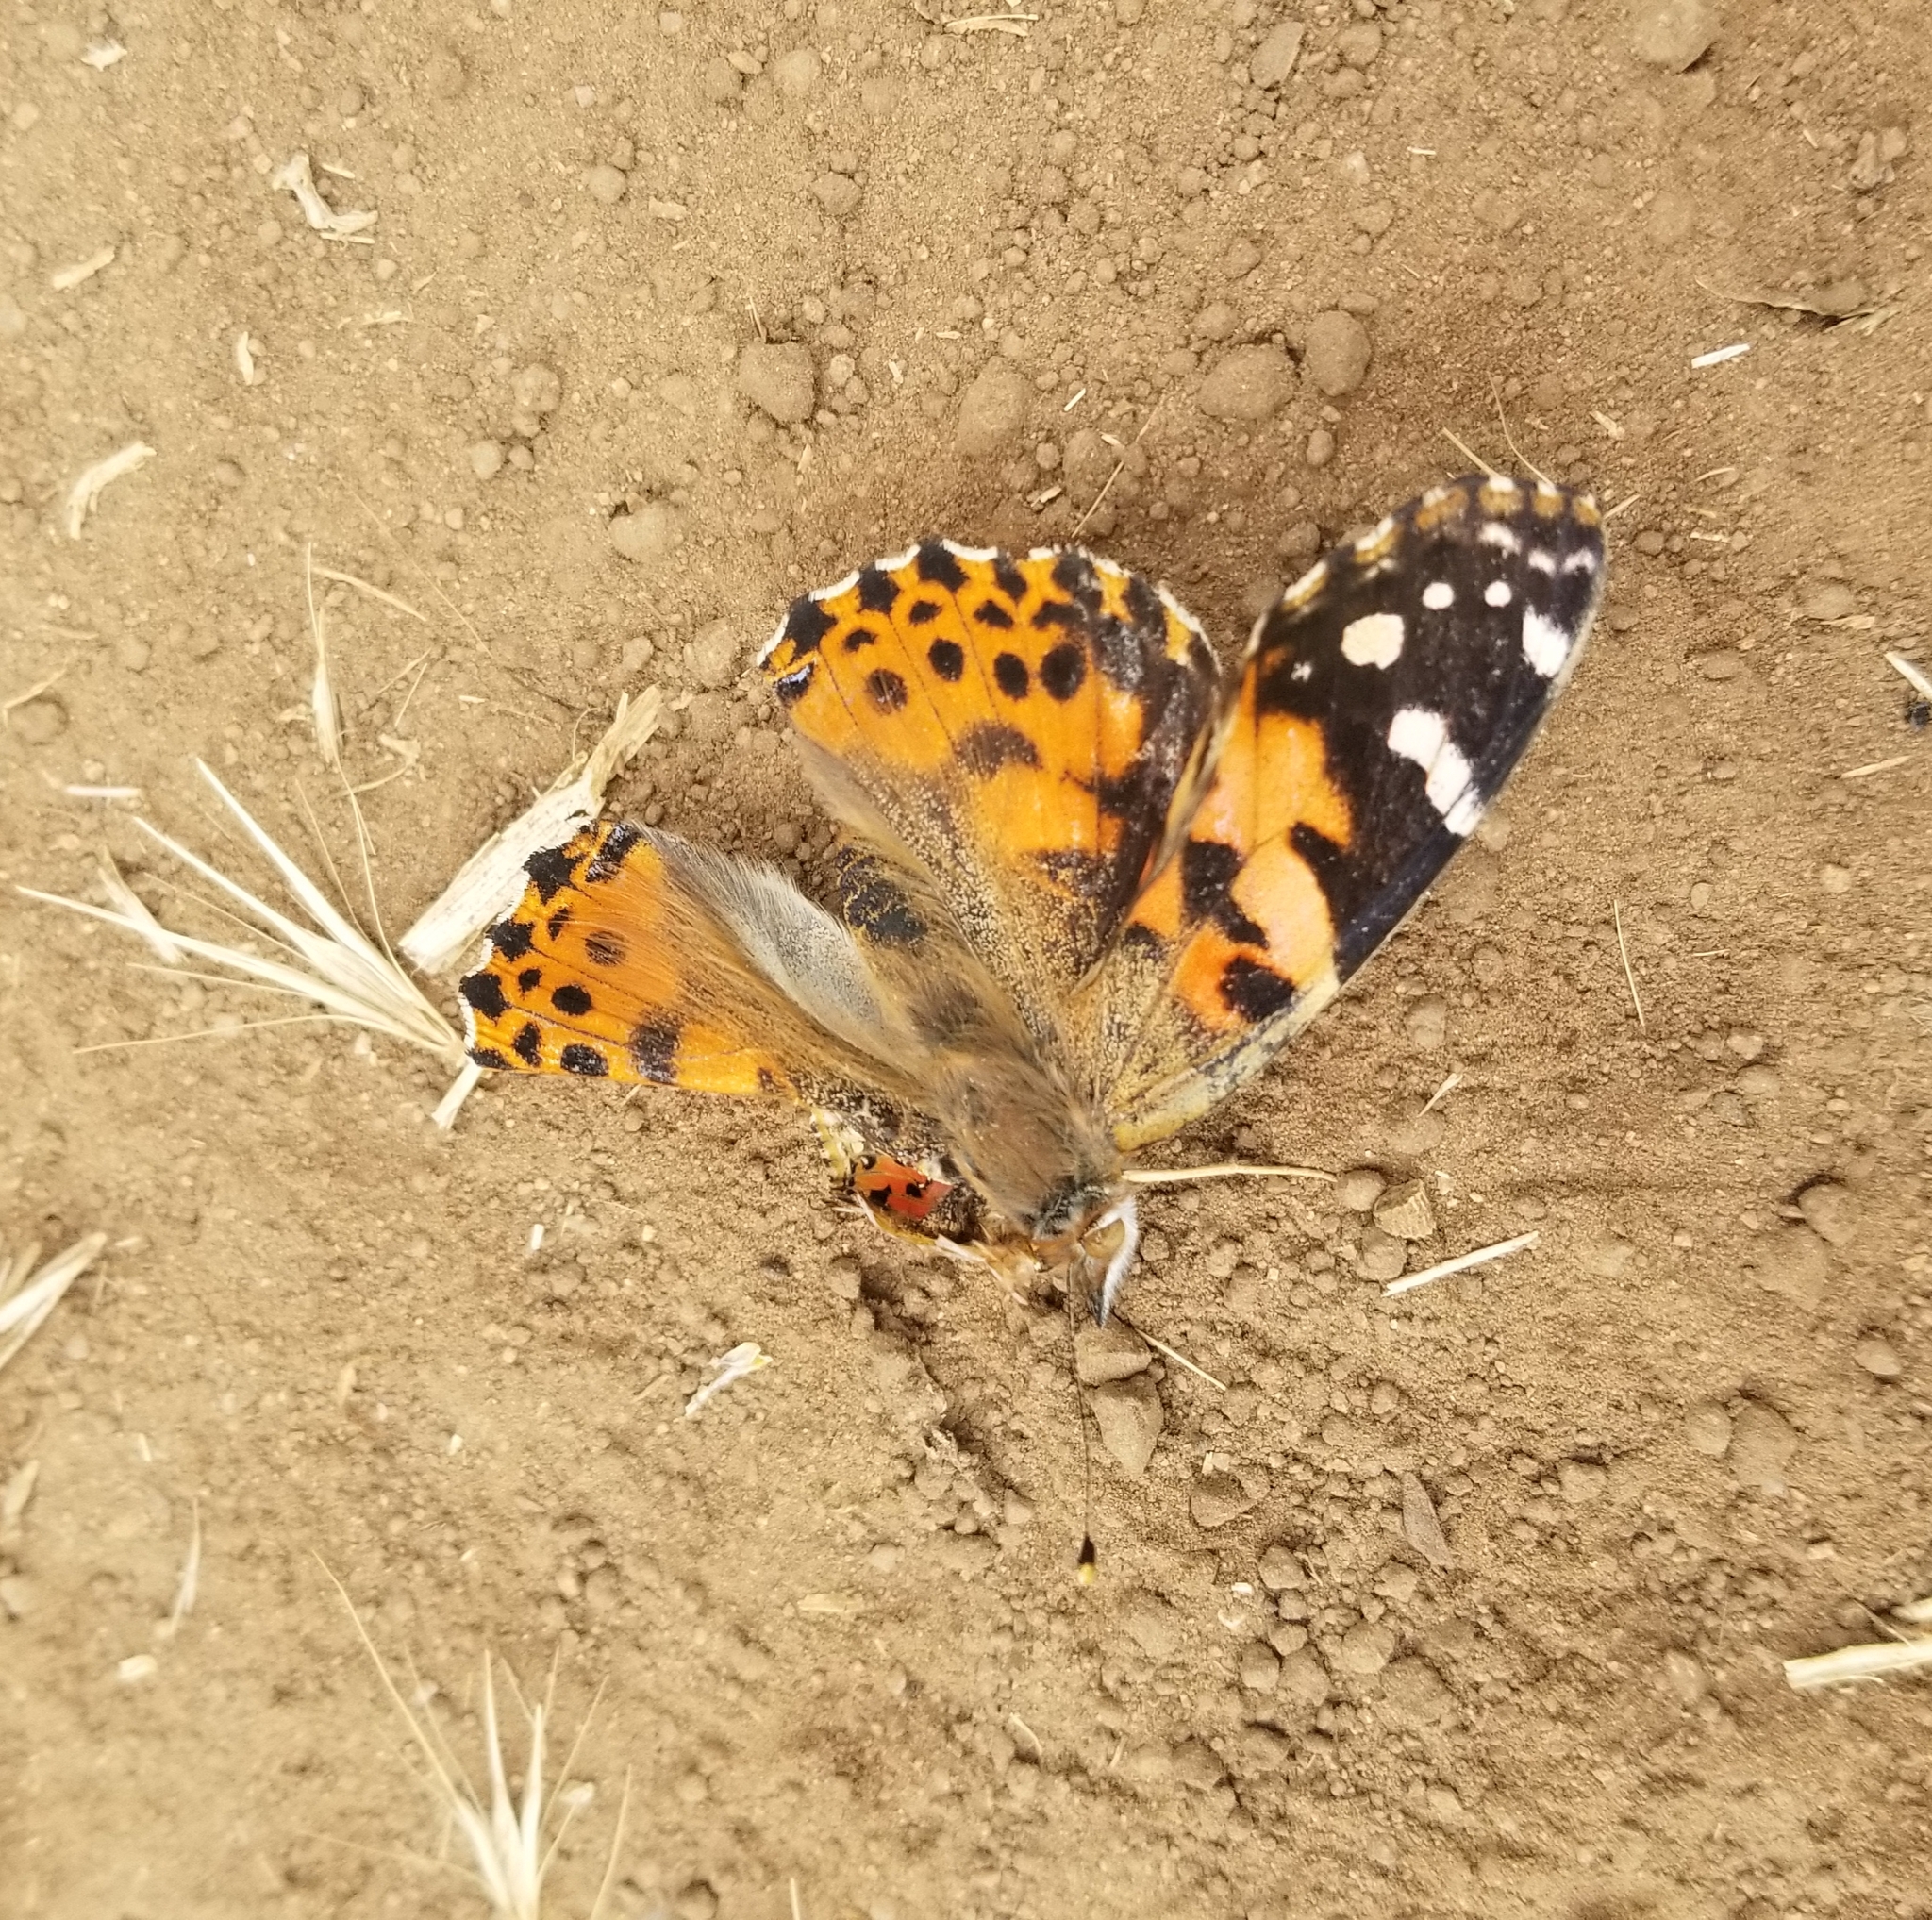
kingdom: Animalia
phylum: Arthropoda
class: Insecta
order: Lepidoptera
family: Nymphalidae
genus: Vanessa
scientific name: Vanessa cardui
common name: Painted lady
